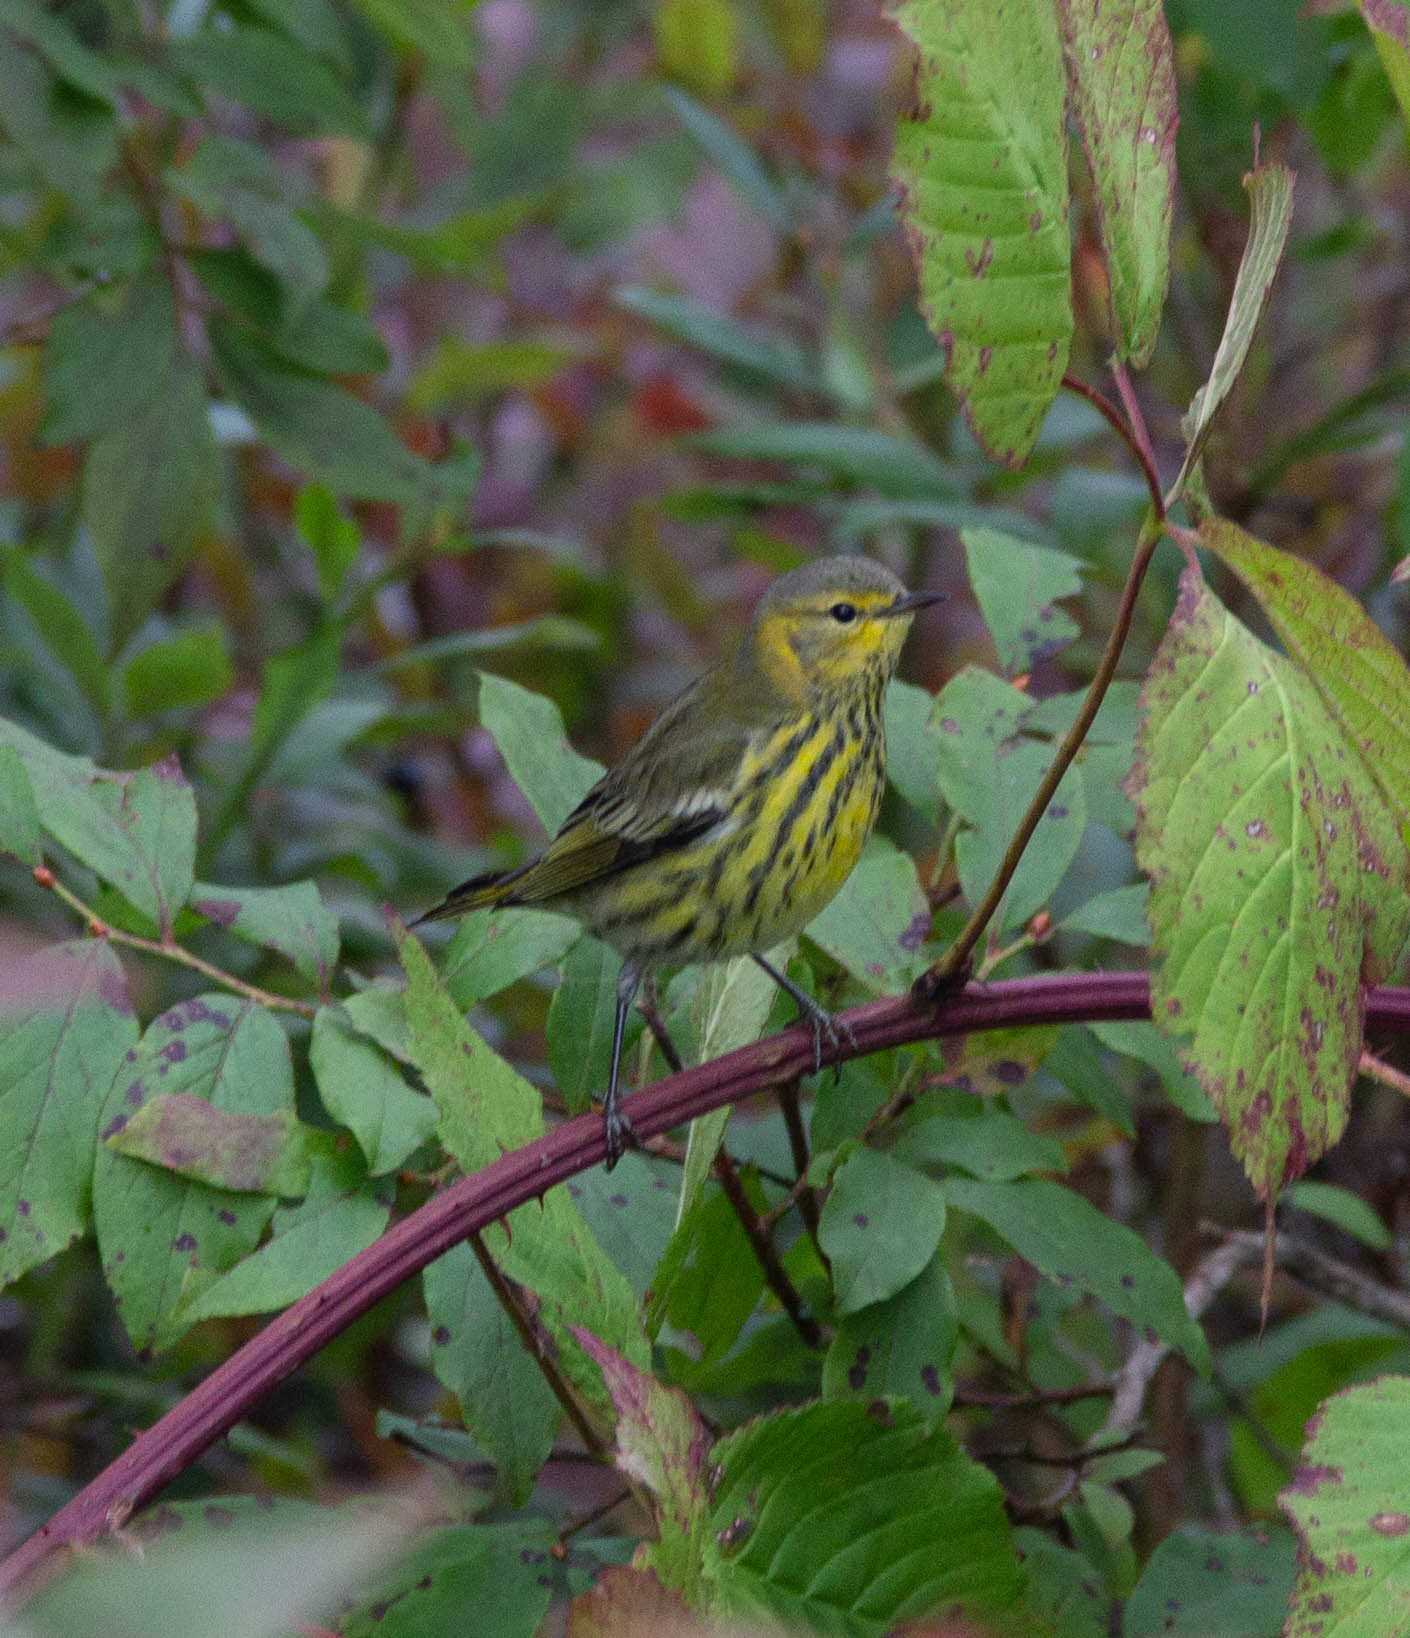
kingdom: Animalia
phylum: Chordata
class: Aves
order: Passeriformes
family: Parulidae
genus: Setophaga
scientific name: Setophaga tigrina
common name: Cape may warbler
